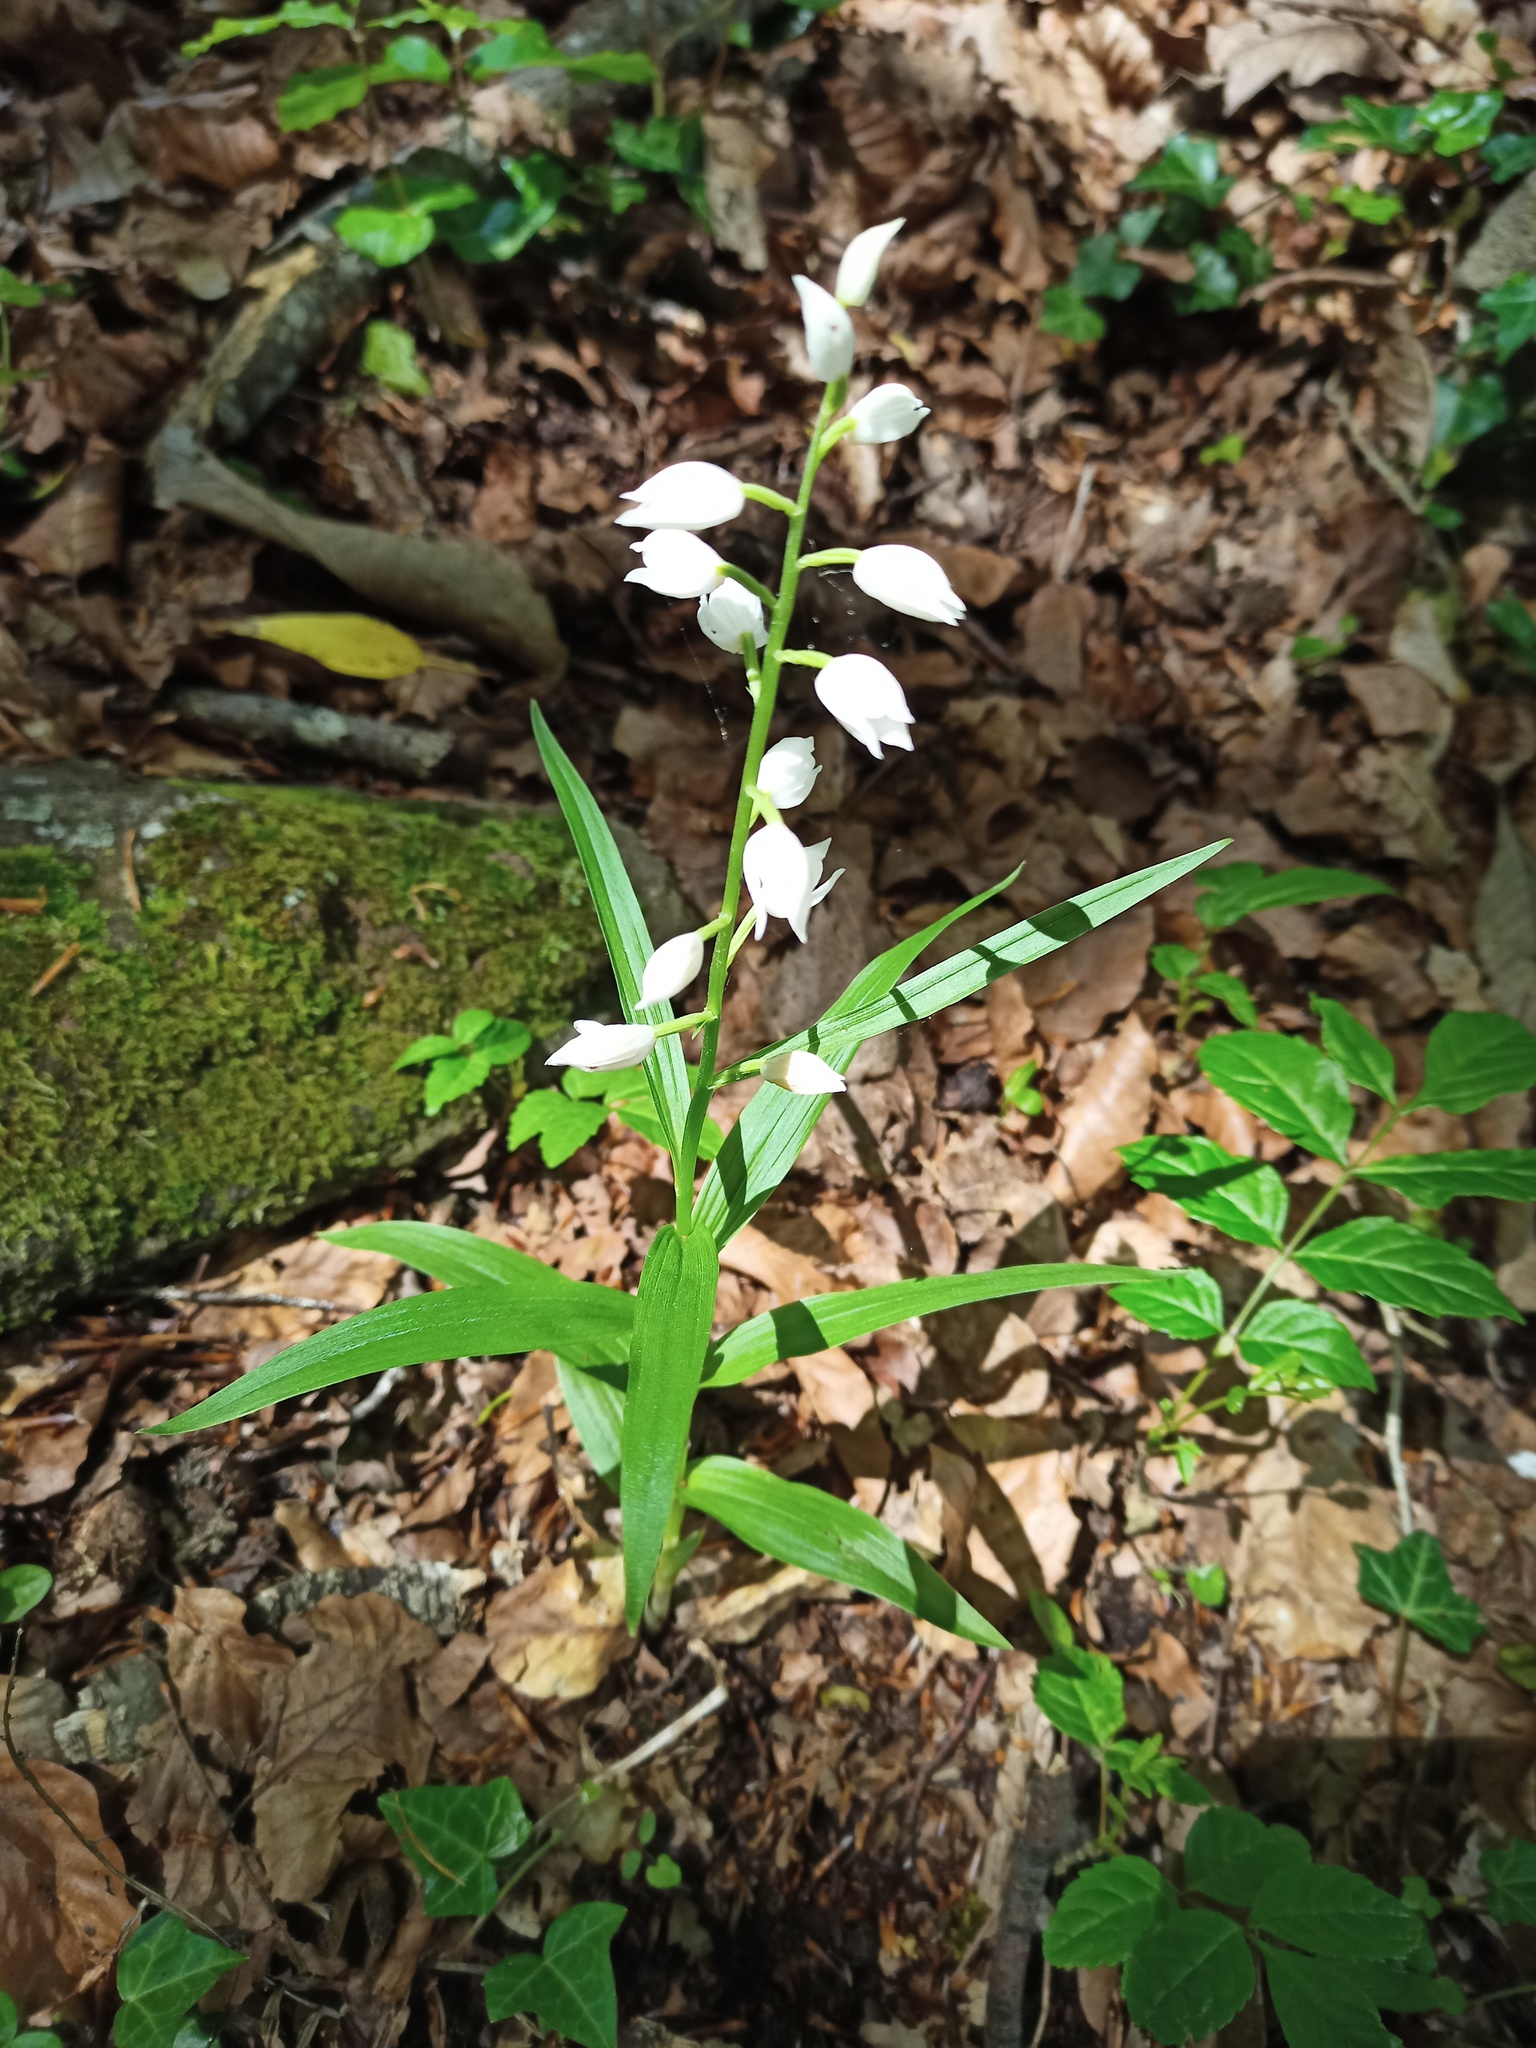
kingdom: Plantae
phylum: Tracheophyta
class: Liliopsida
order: Asparagales
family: Orchidaceae
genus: Cephalanthera
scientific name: Cephalanthera longifolia
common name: Narrow-leaved helleborine
